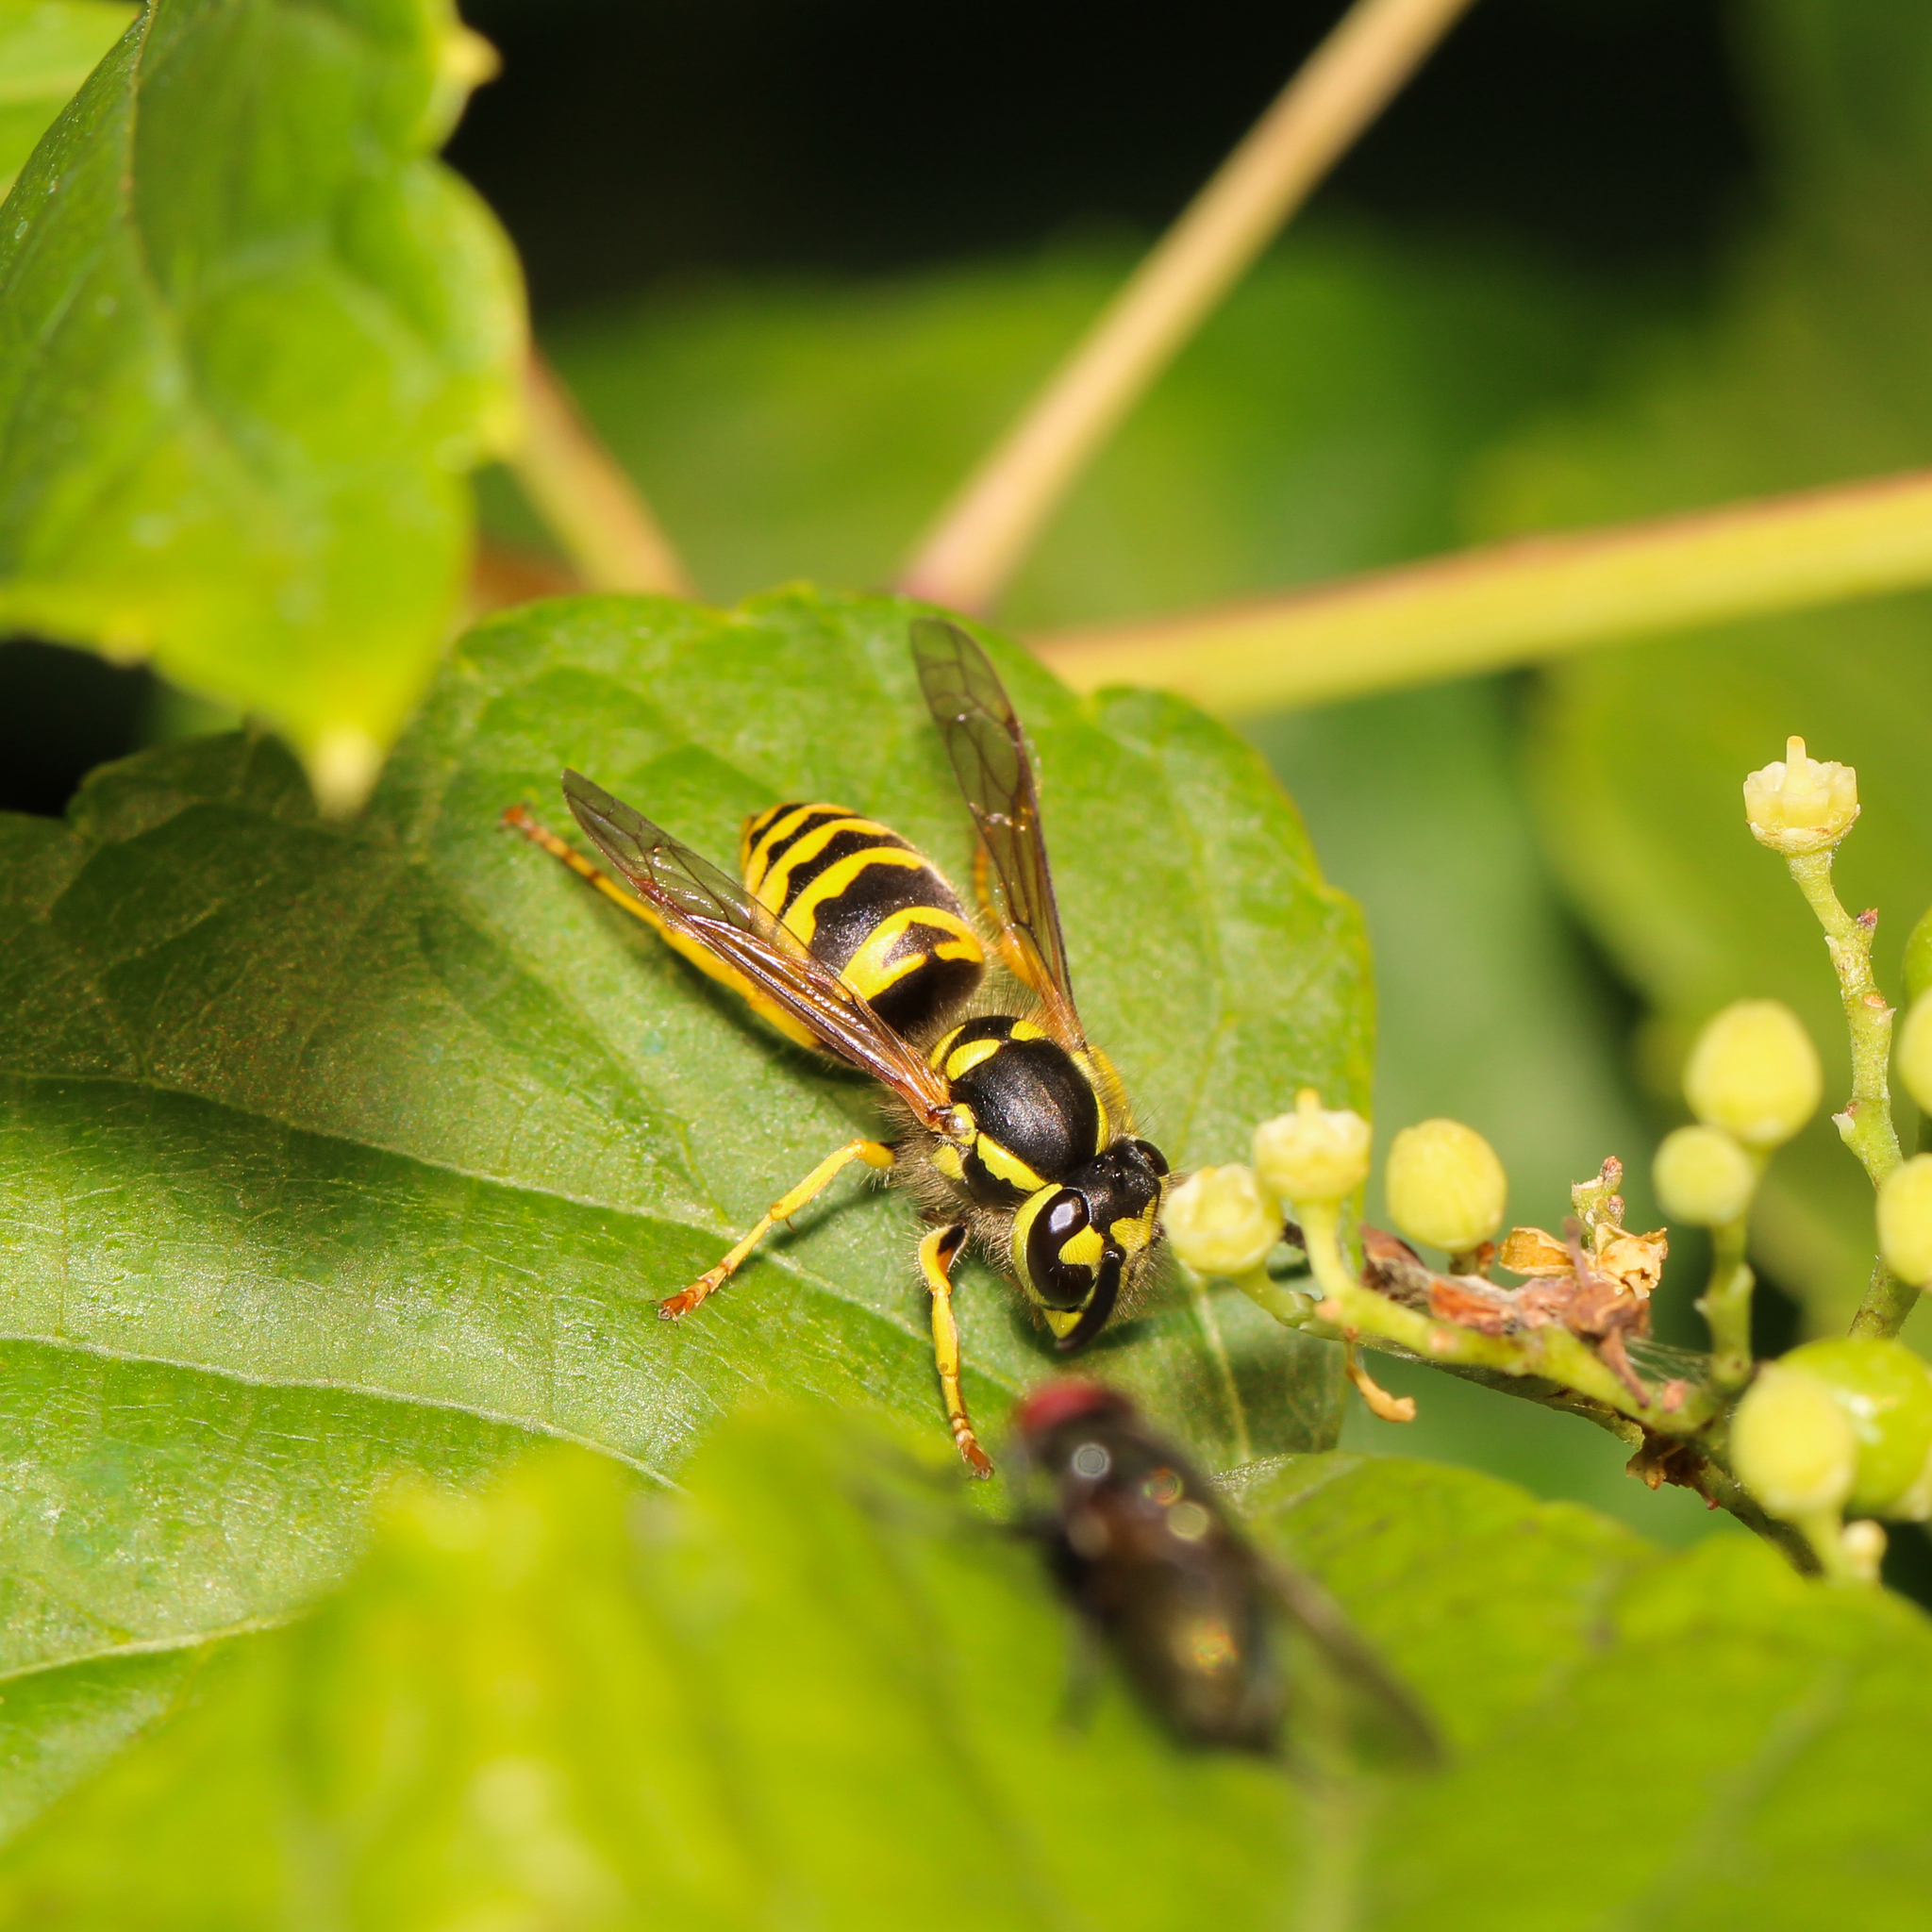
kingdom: Animalia
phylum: Arthropoda
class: Insecta
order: Hymenoptera
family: Vespidae
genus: Vespula
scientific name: Vespula maculifrons
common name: Eastern yellowjacket
